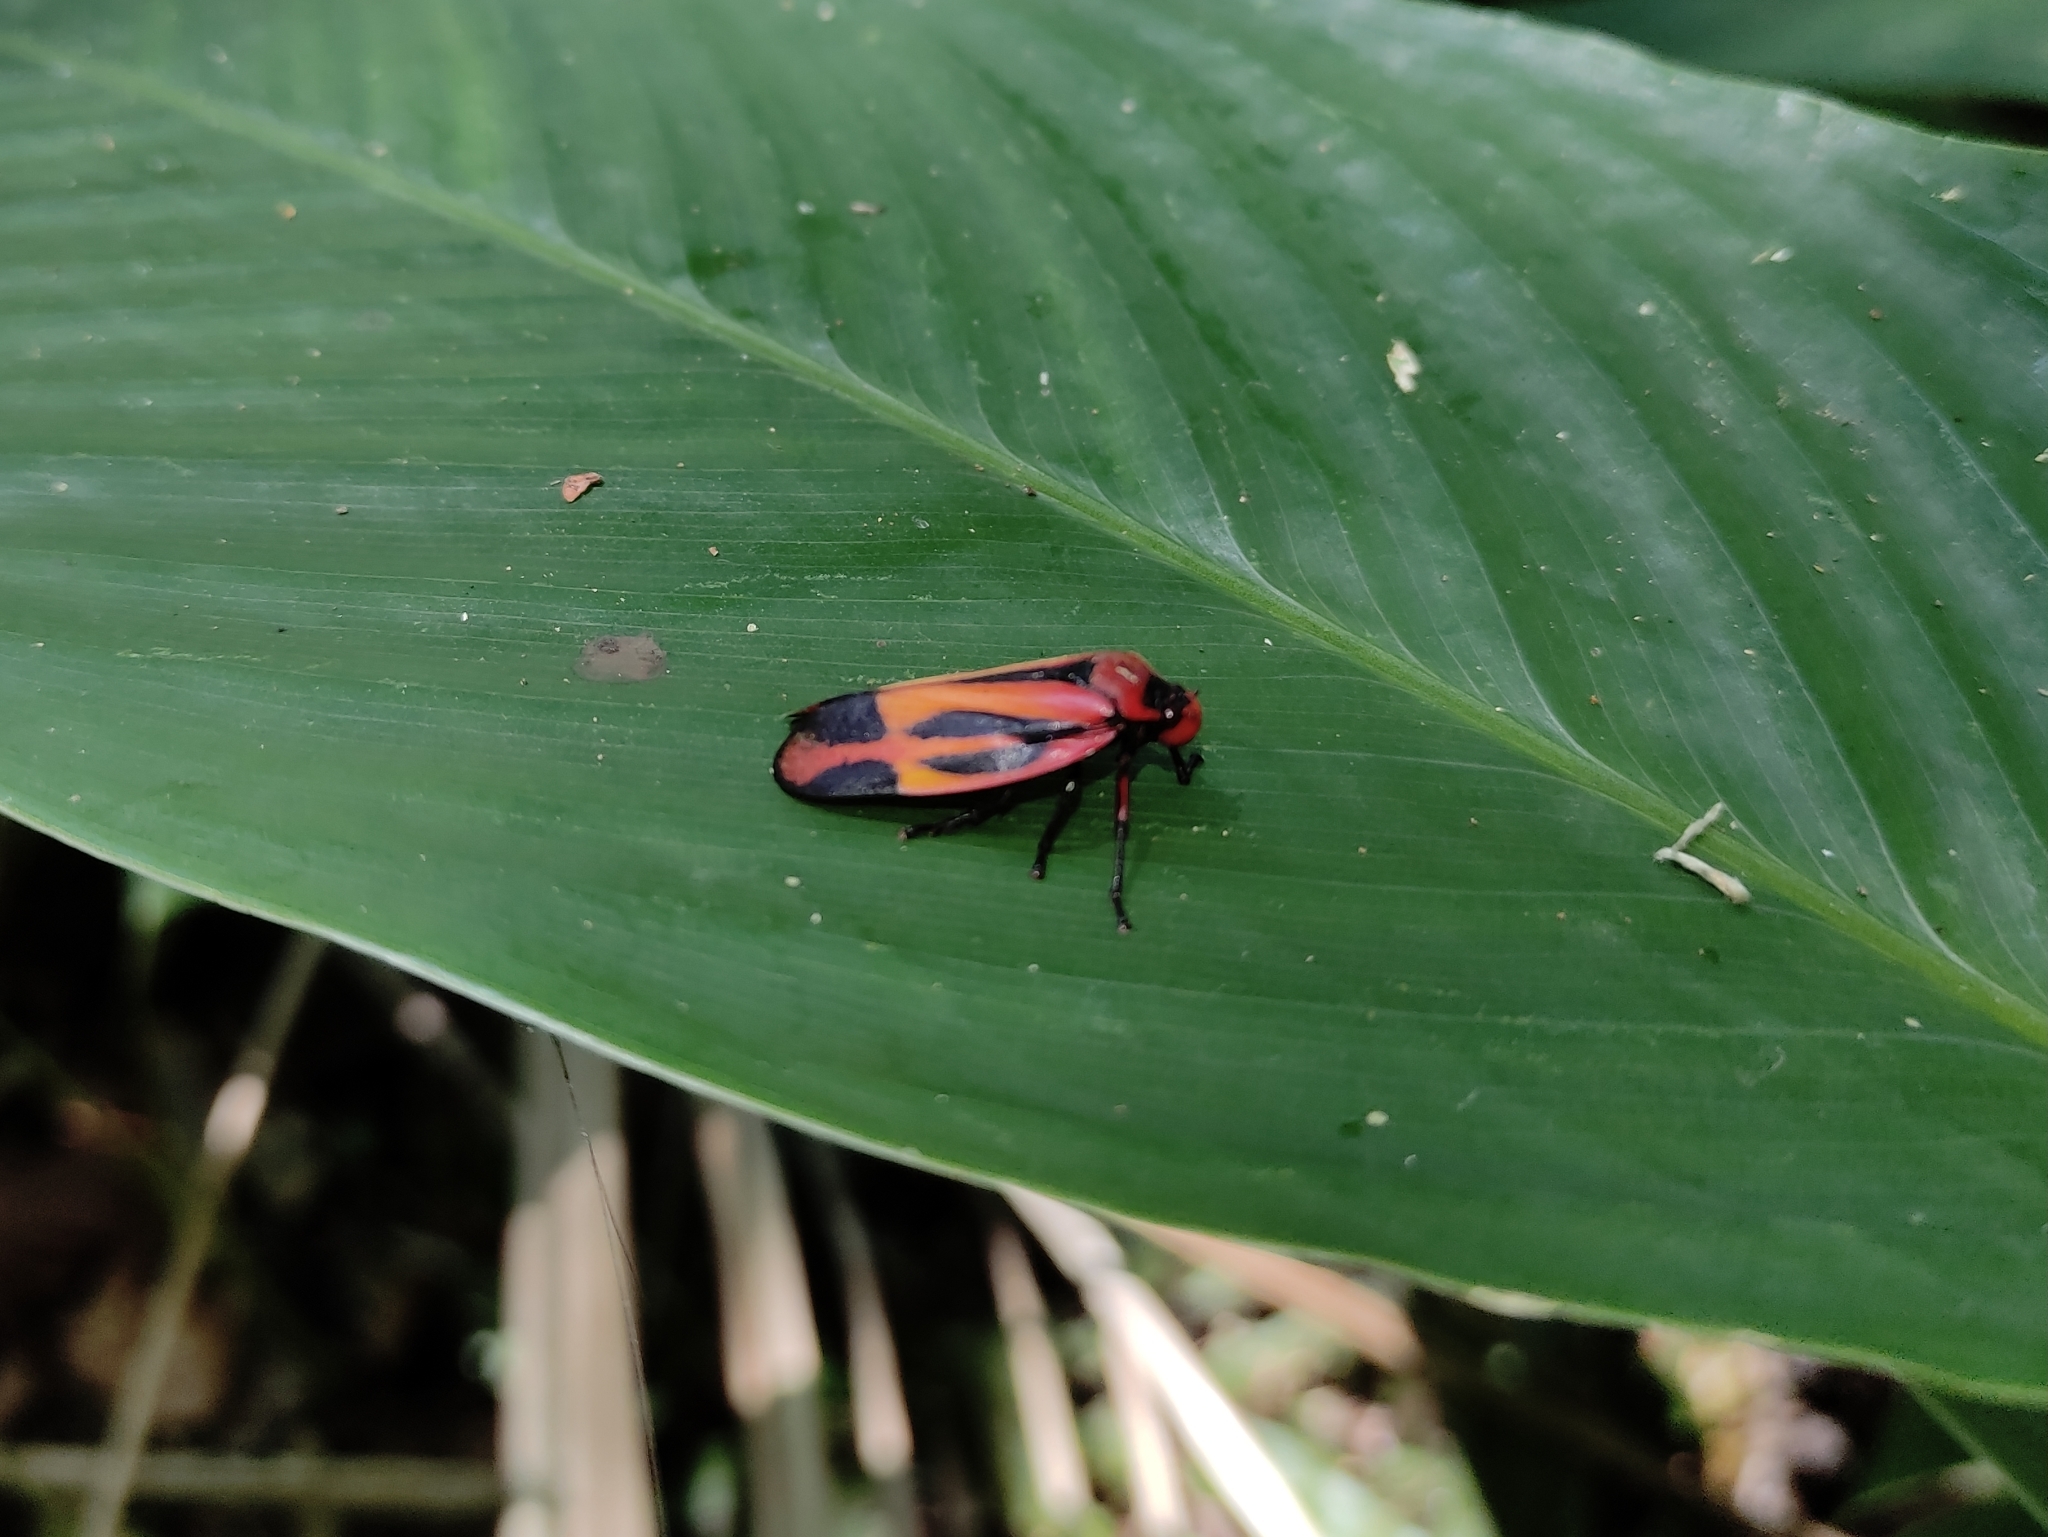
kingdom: Animalia
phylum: Arthropoda
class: Insecta
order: Hemiptera
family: Cercopidae
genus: Tomaspis
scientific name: Tomaspis furcata
